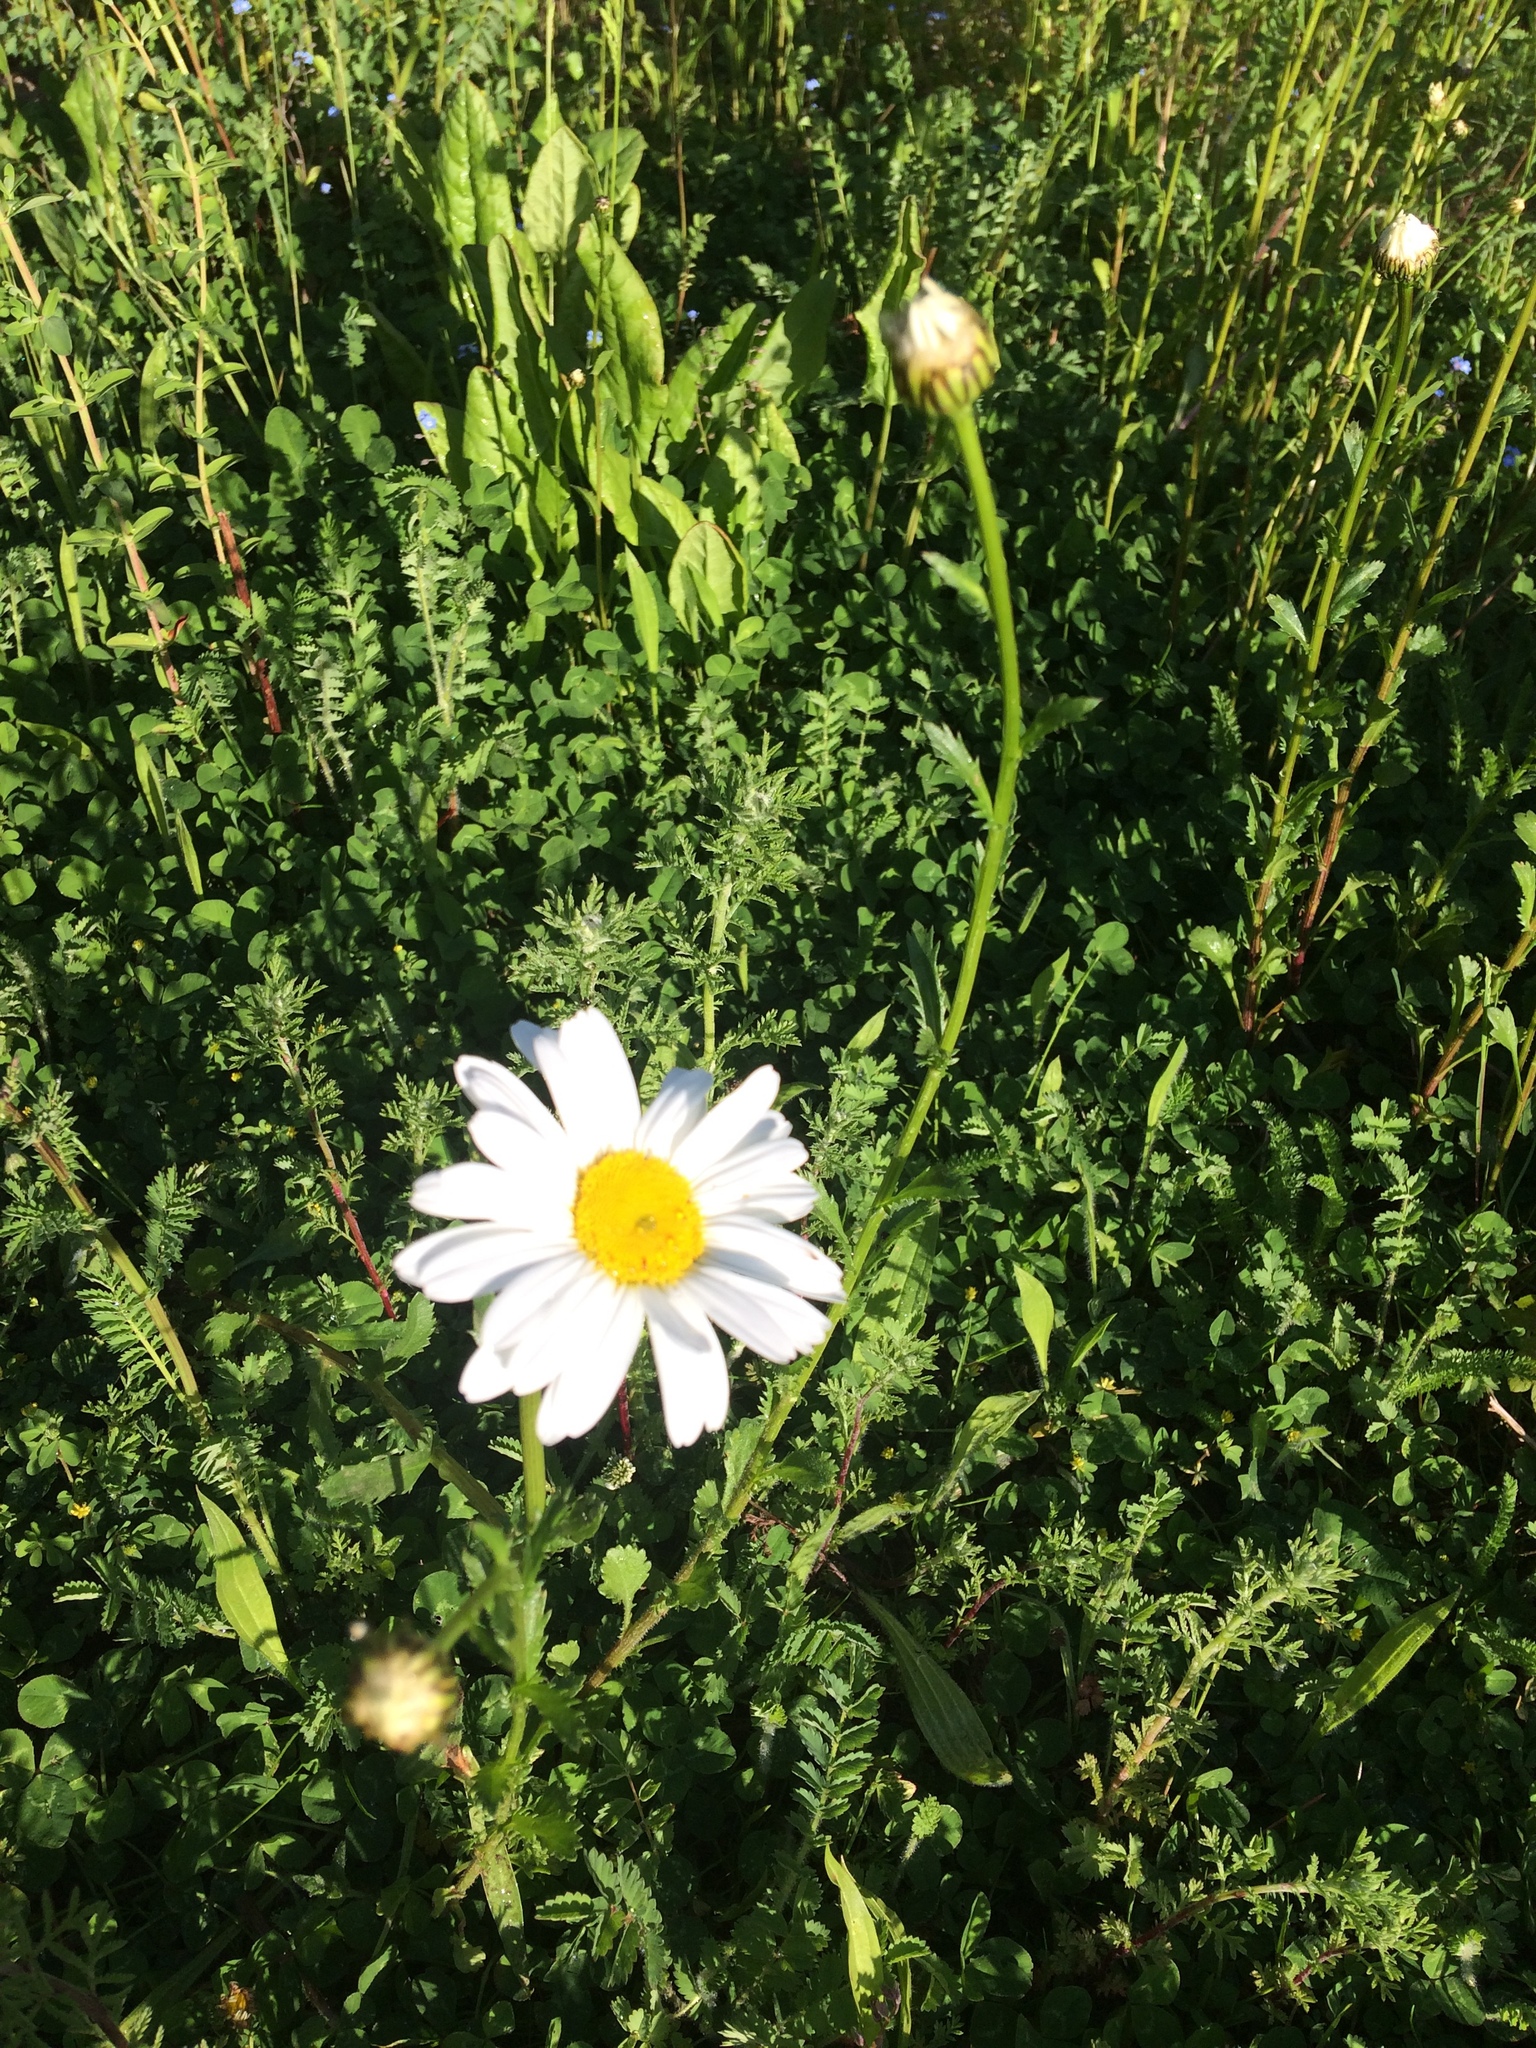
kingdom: Plantae
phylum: Tracheophyta
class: Magnoliopsida
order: Asterales
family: Asteraceae
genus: Leucanthemum
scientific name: Leucanthemum vulgare
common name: Oxeye daisy
